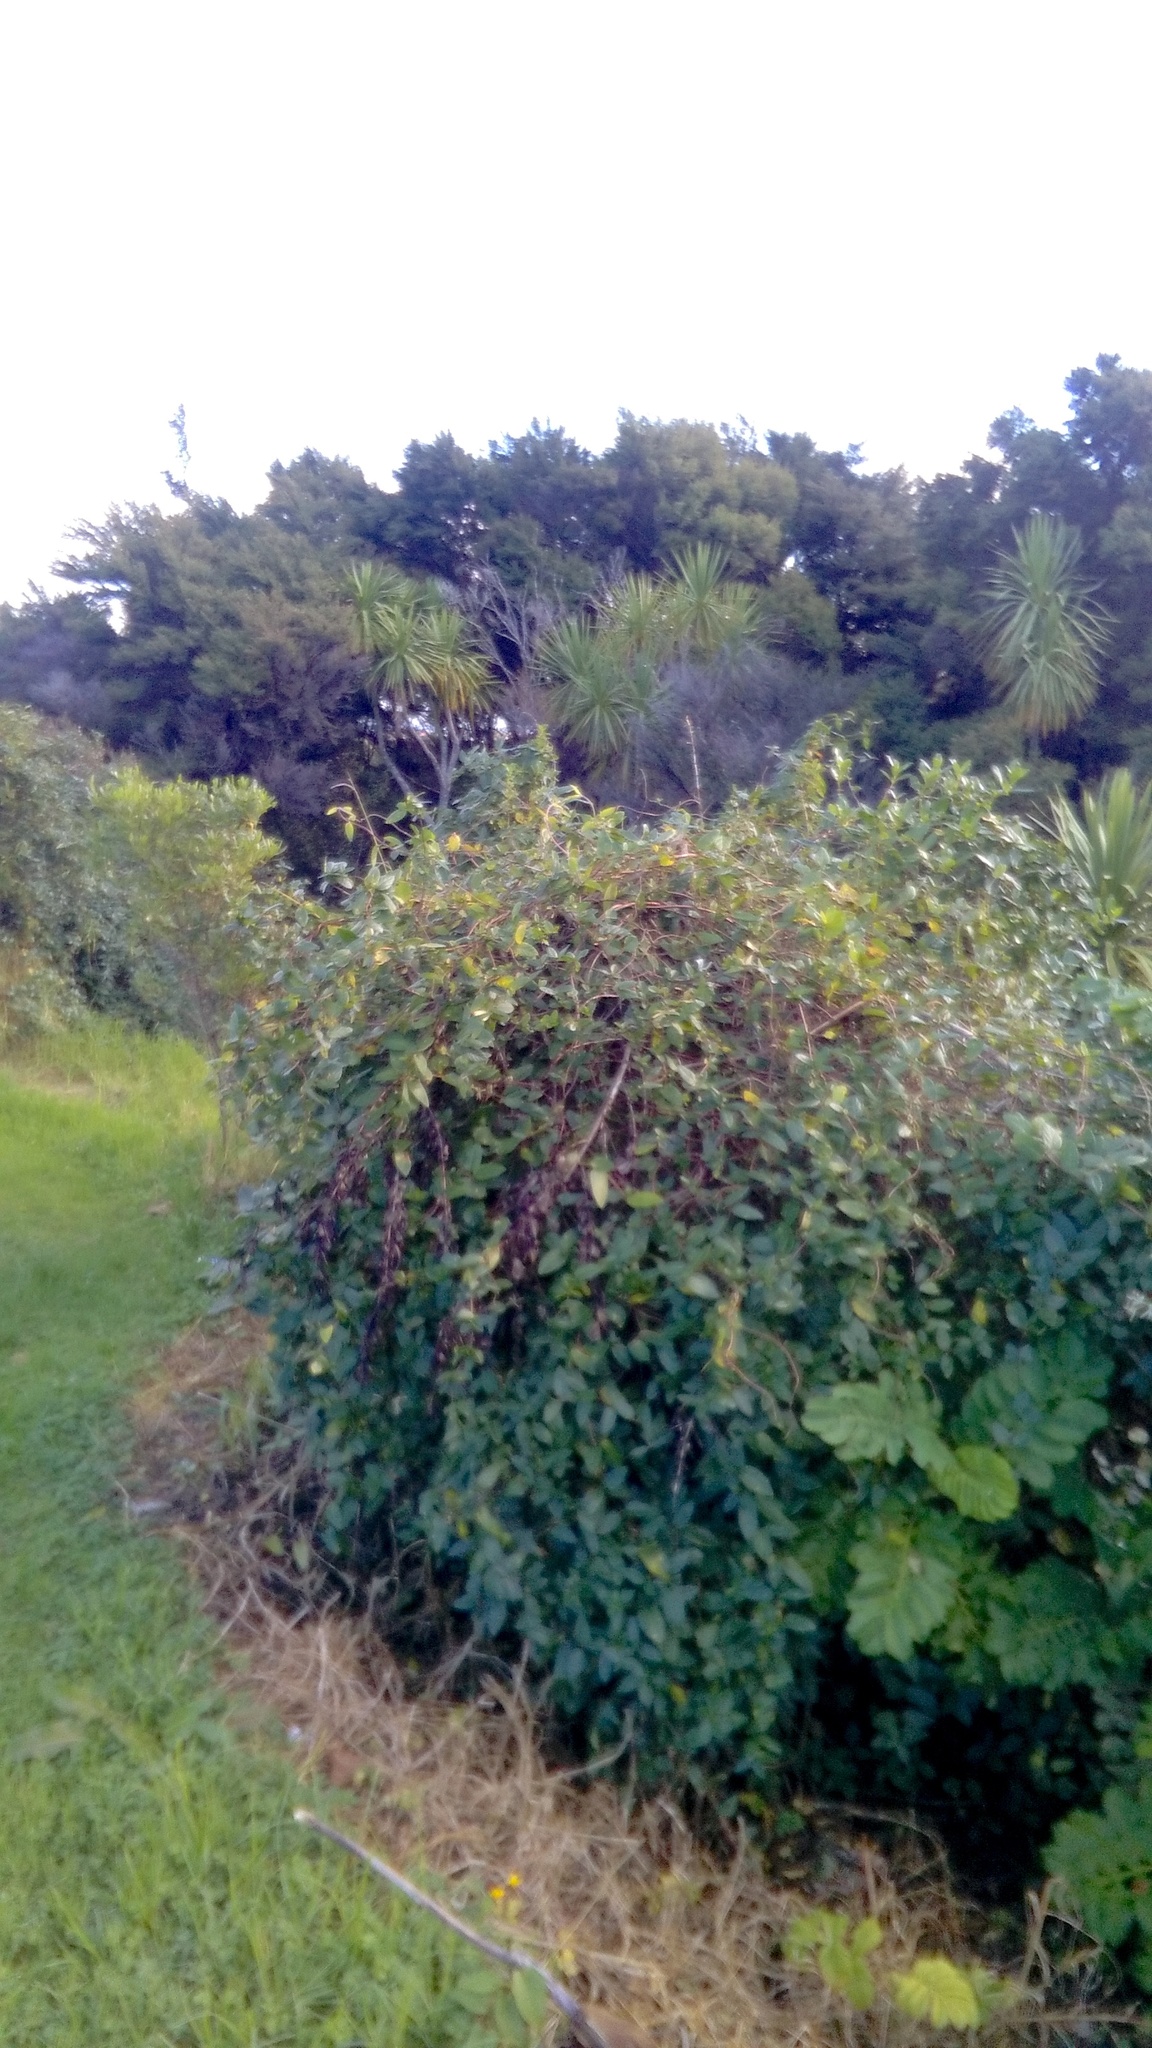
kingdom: Plantae
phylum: Tracheophyta
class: Magnoliopsida
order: Dipsacales
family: Caprifoliaceae
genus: Lonicera
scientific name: Lonicera japonica
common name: Japanese honeysuckle
